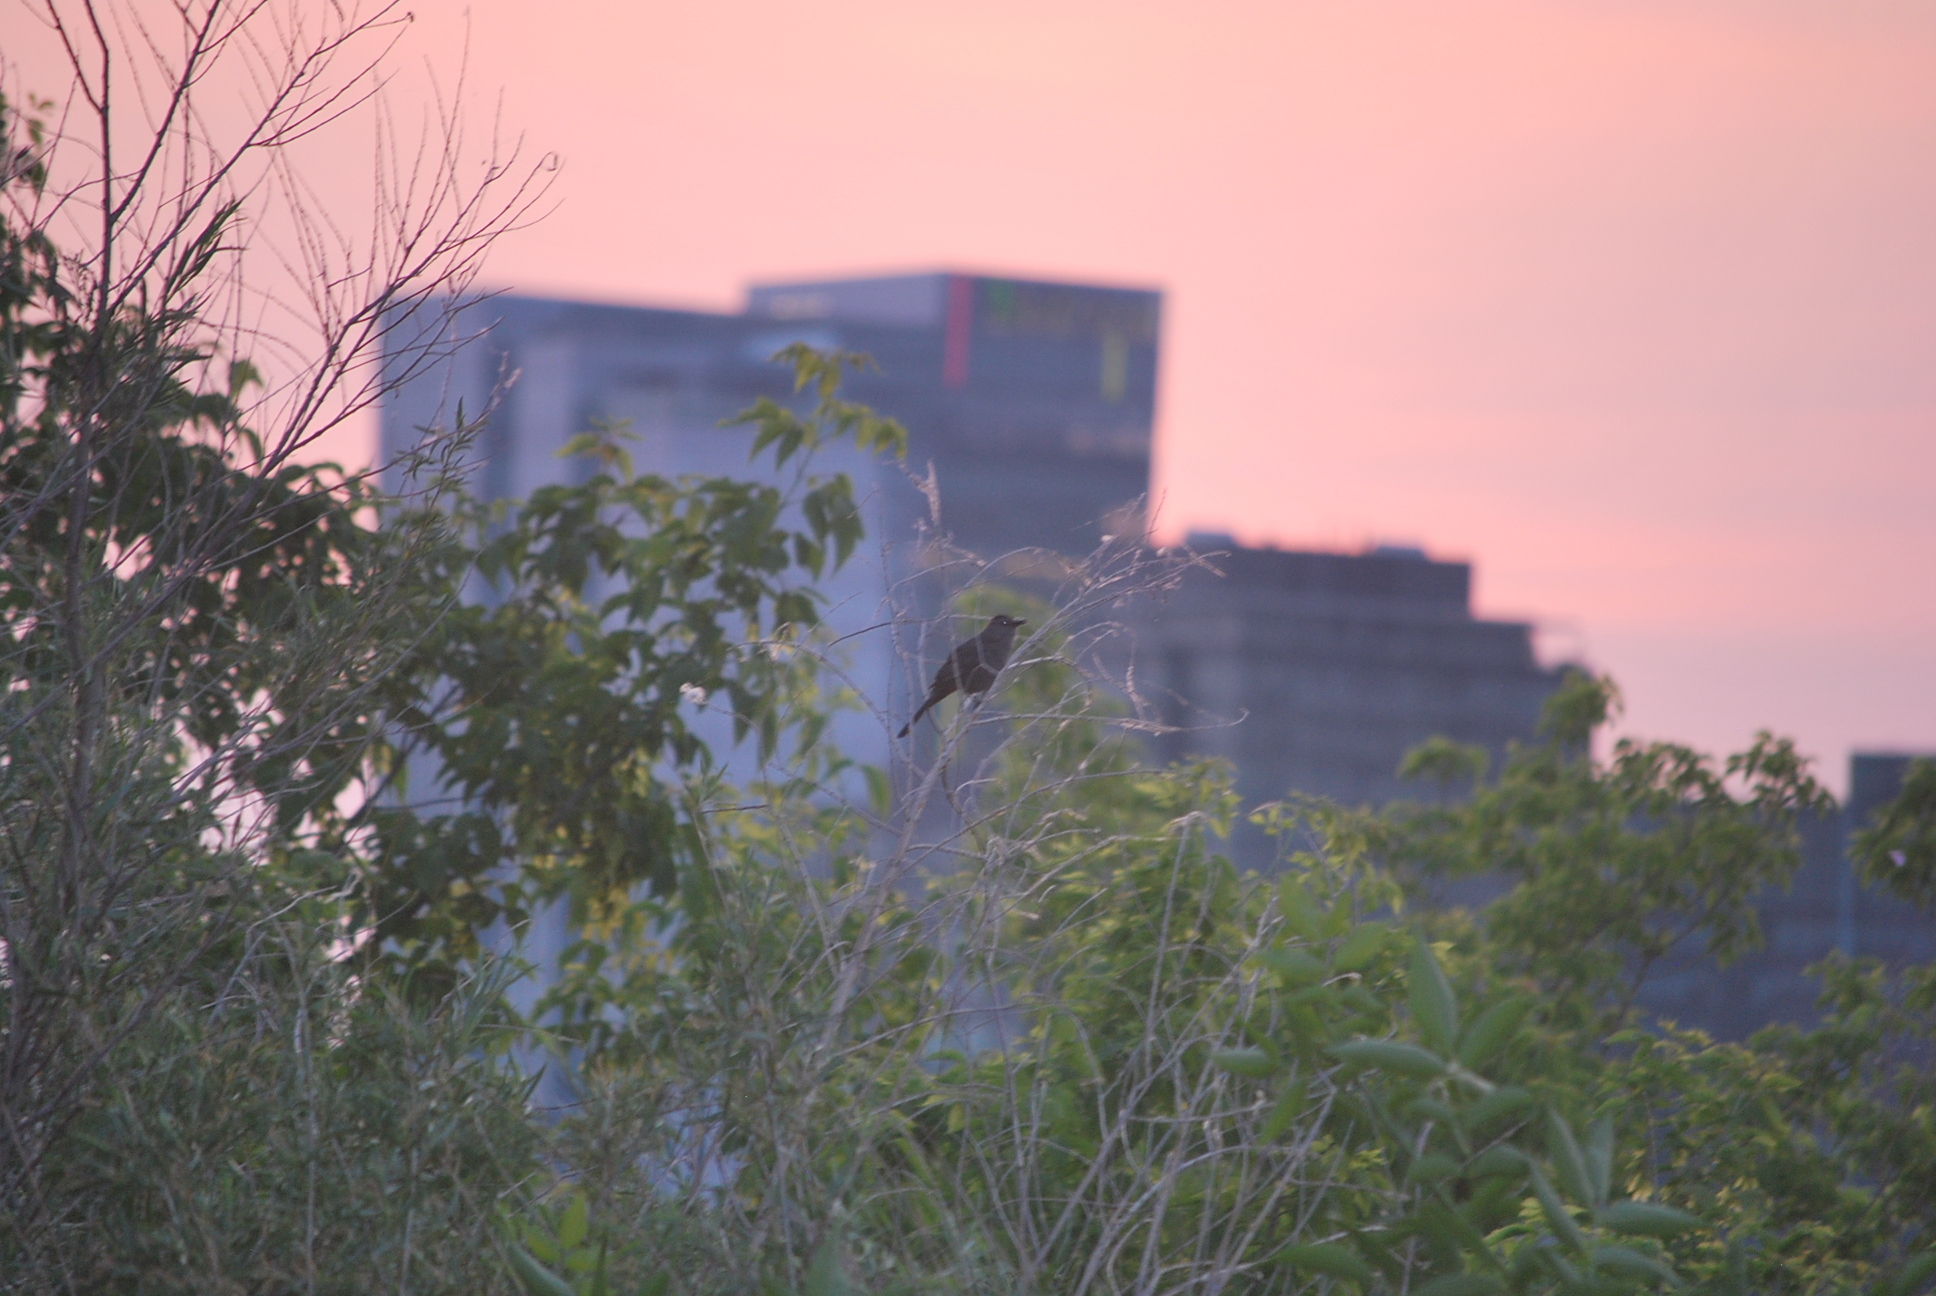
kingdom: Animalia
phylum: Chordata
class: Aves
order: Passeriformes
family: Mimidae
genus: Dumetella
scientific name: Dumetella carolinensis
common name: Gray catbird
